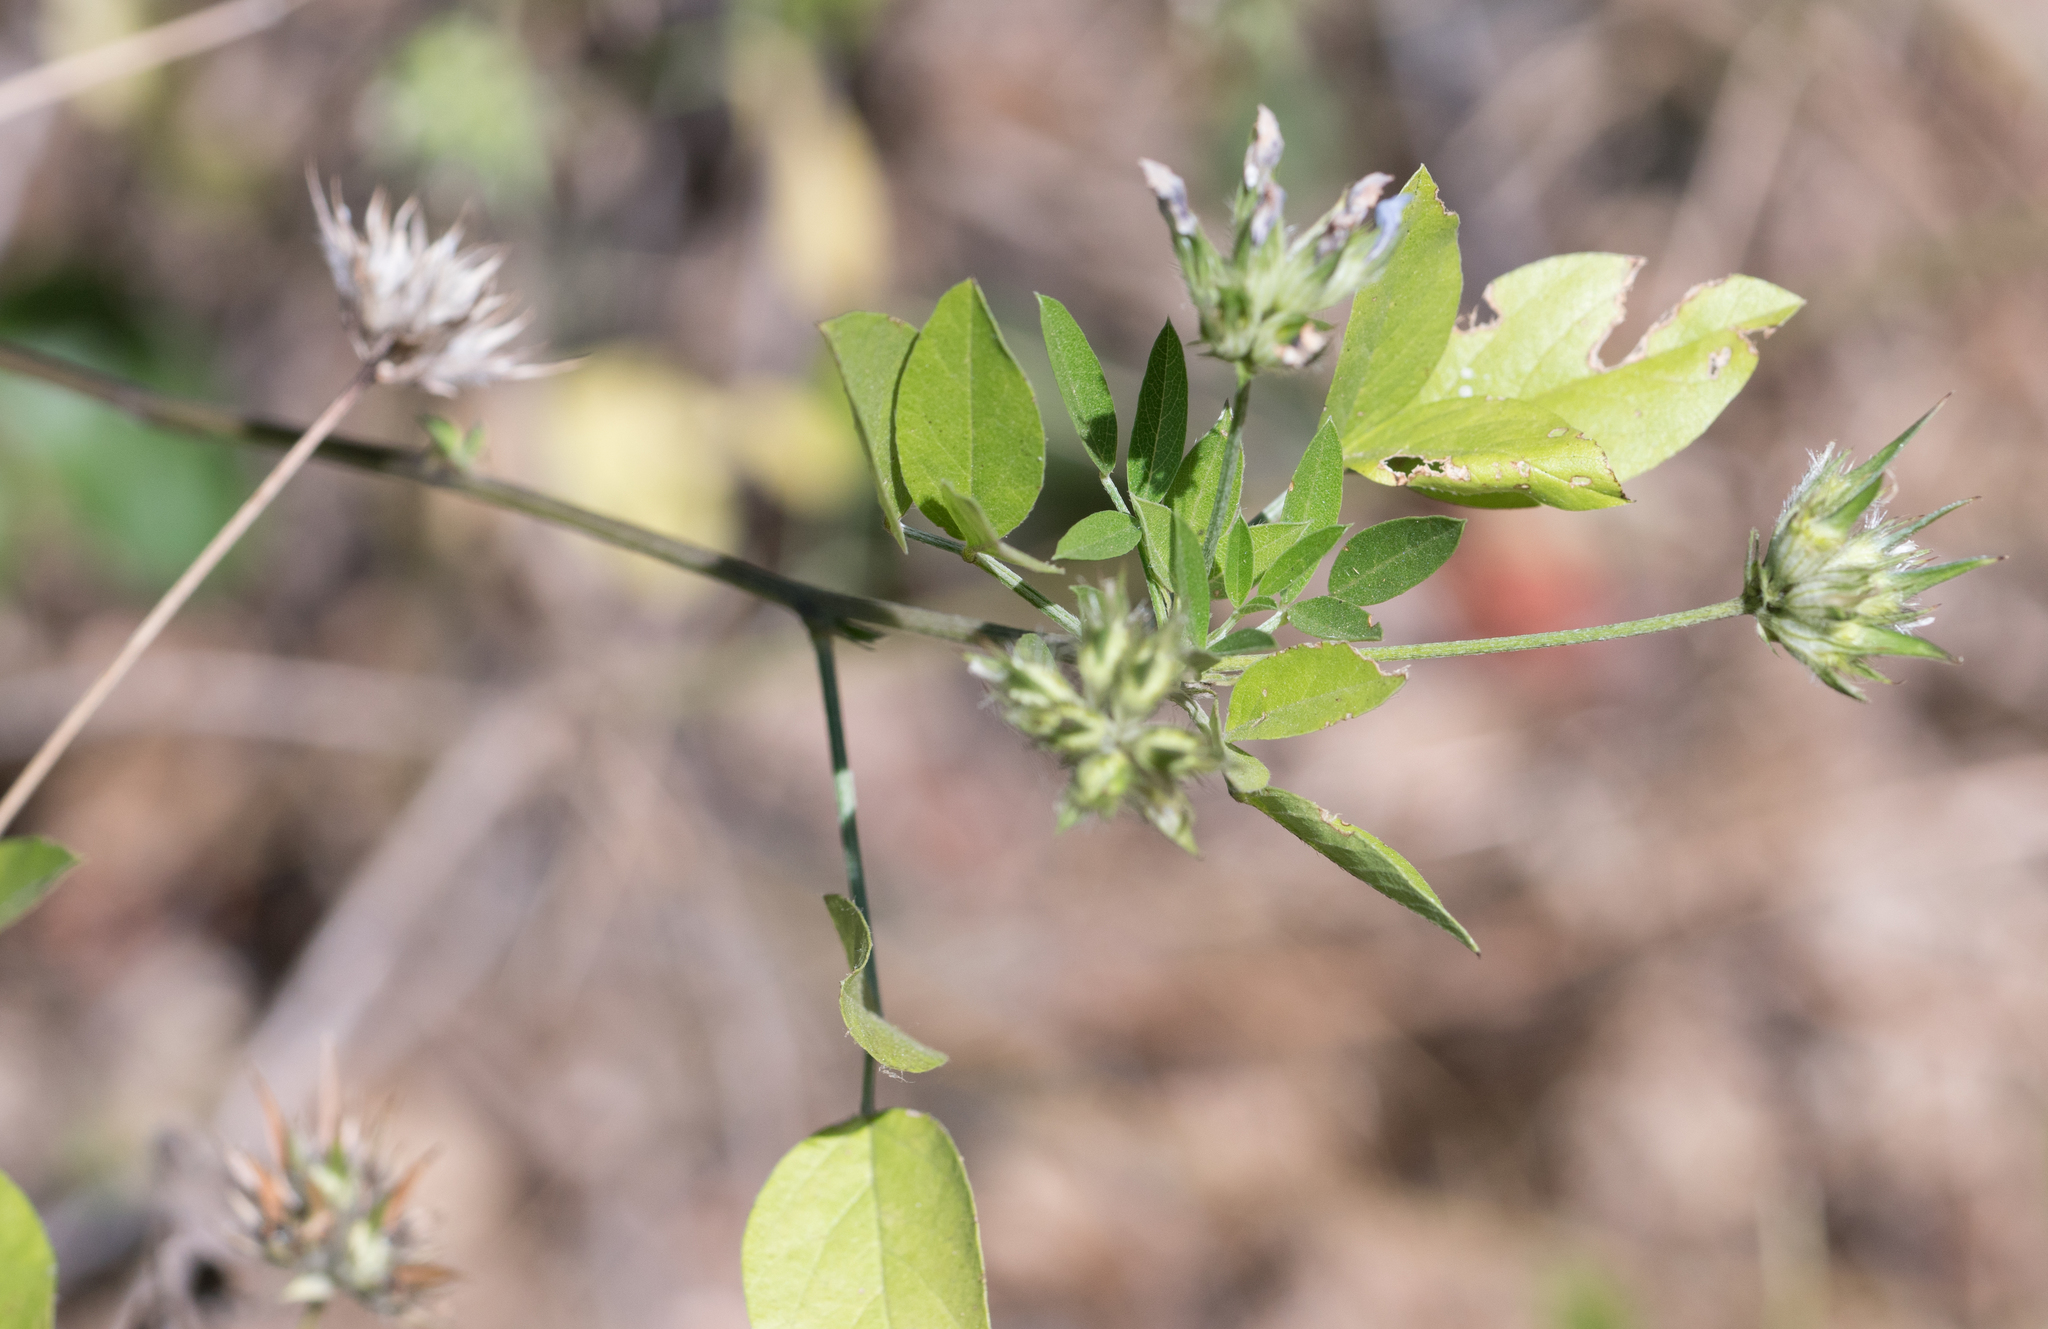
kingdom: Plantae
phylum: Tracheophyta
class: Magnoliopsida
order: Fabales
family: Fabaceae
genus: Bituminaria
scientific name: Bituminaria bituminosa
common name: Arabian pea
